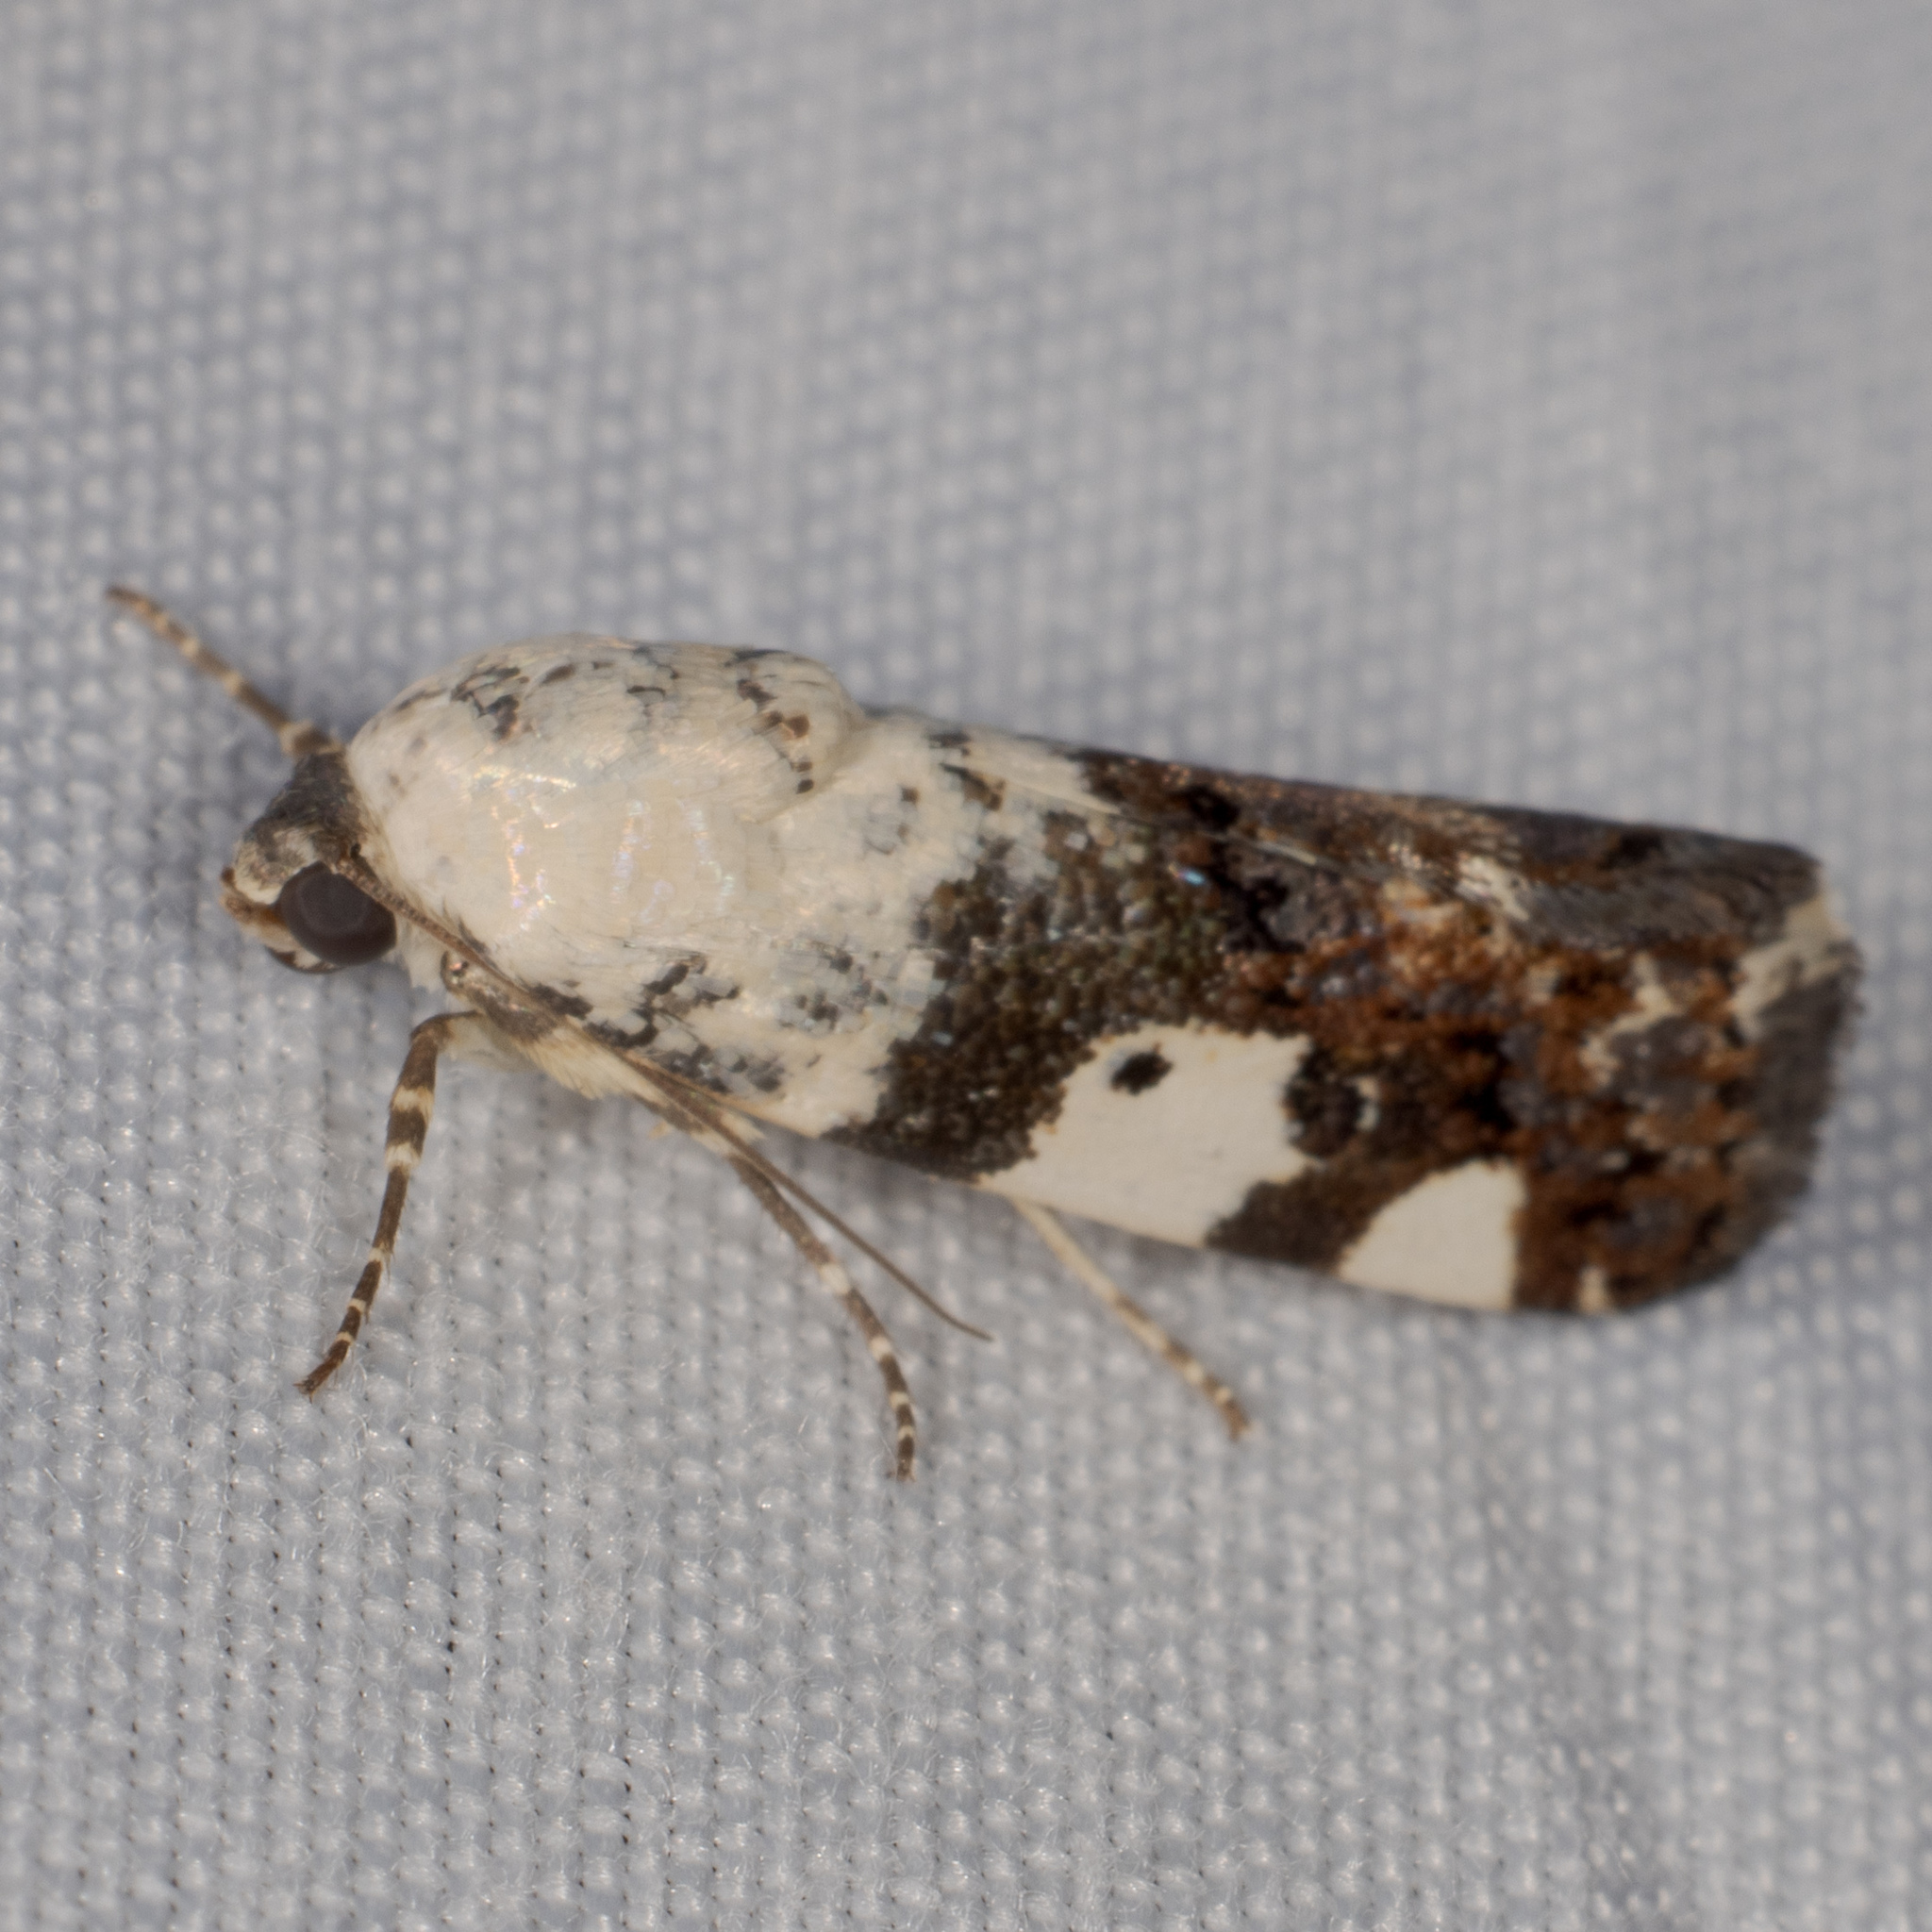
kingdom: Animalia
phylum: Arthropoda
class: Insecta
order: Lepidoptera
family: Noctuidae
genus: Acontia
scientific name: Acontia aprica
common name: Nun
